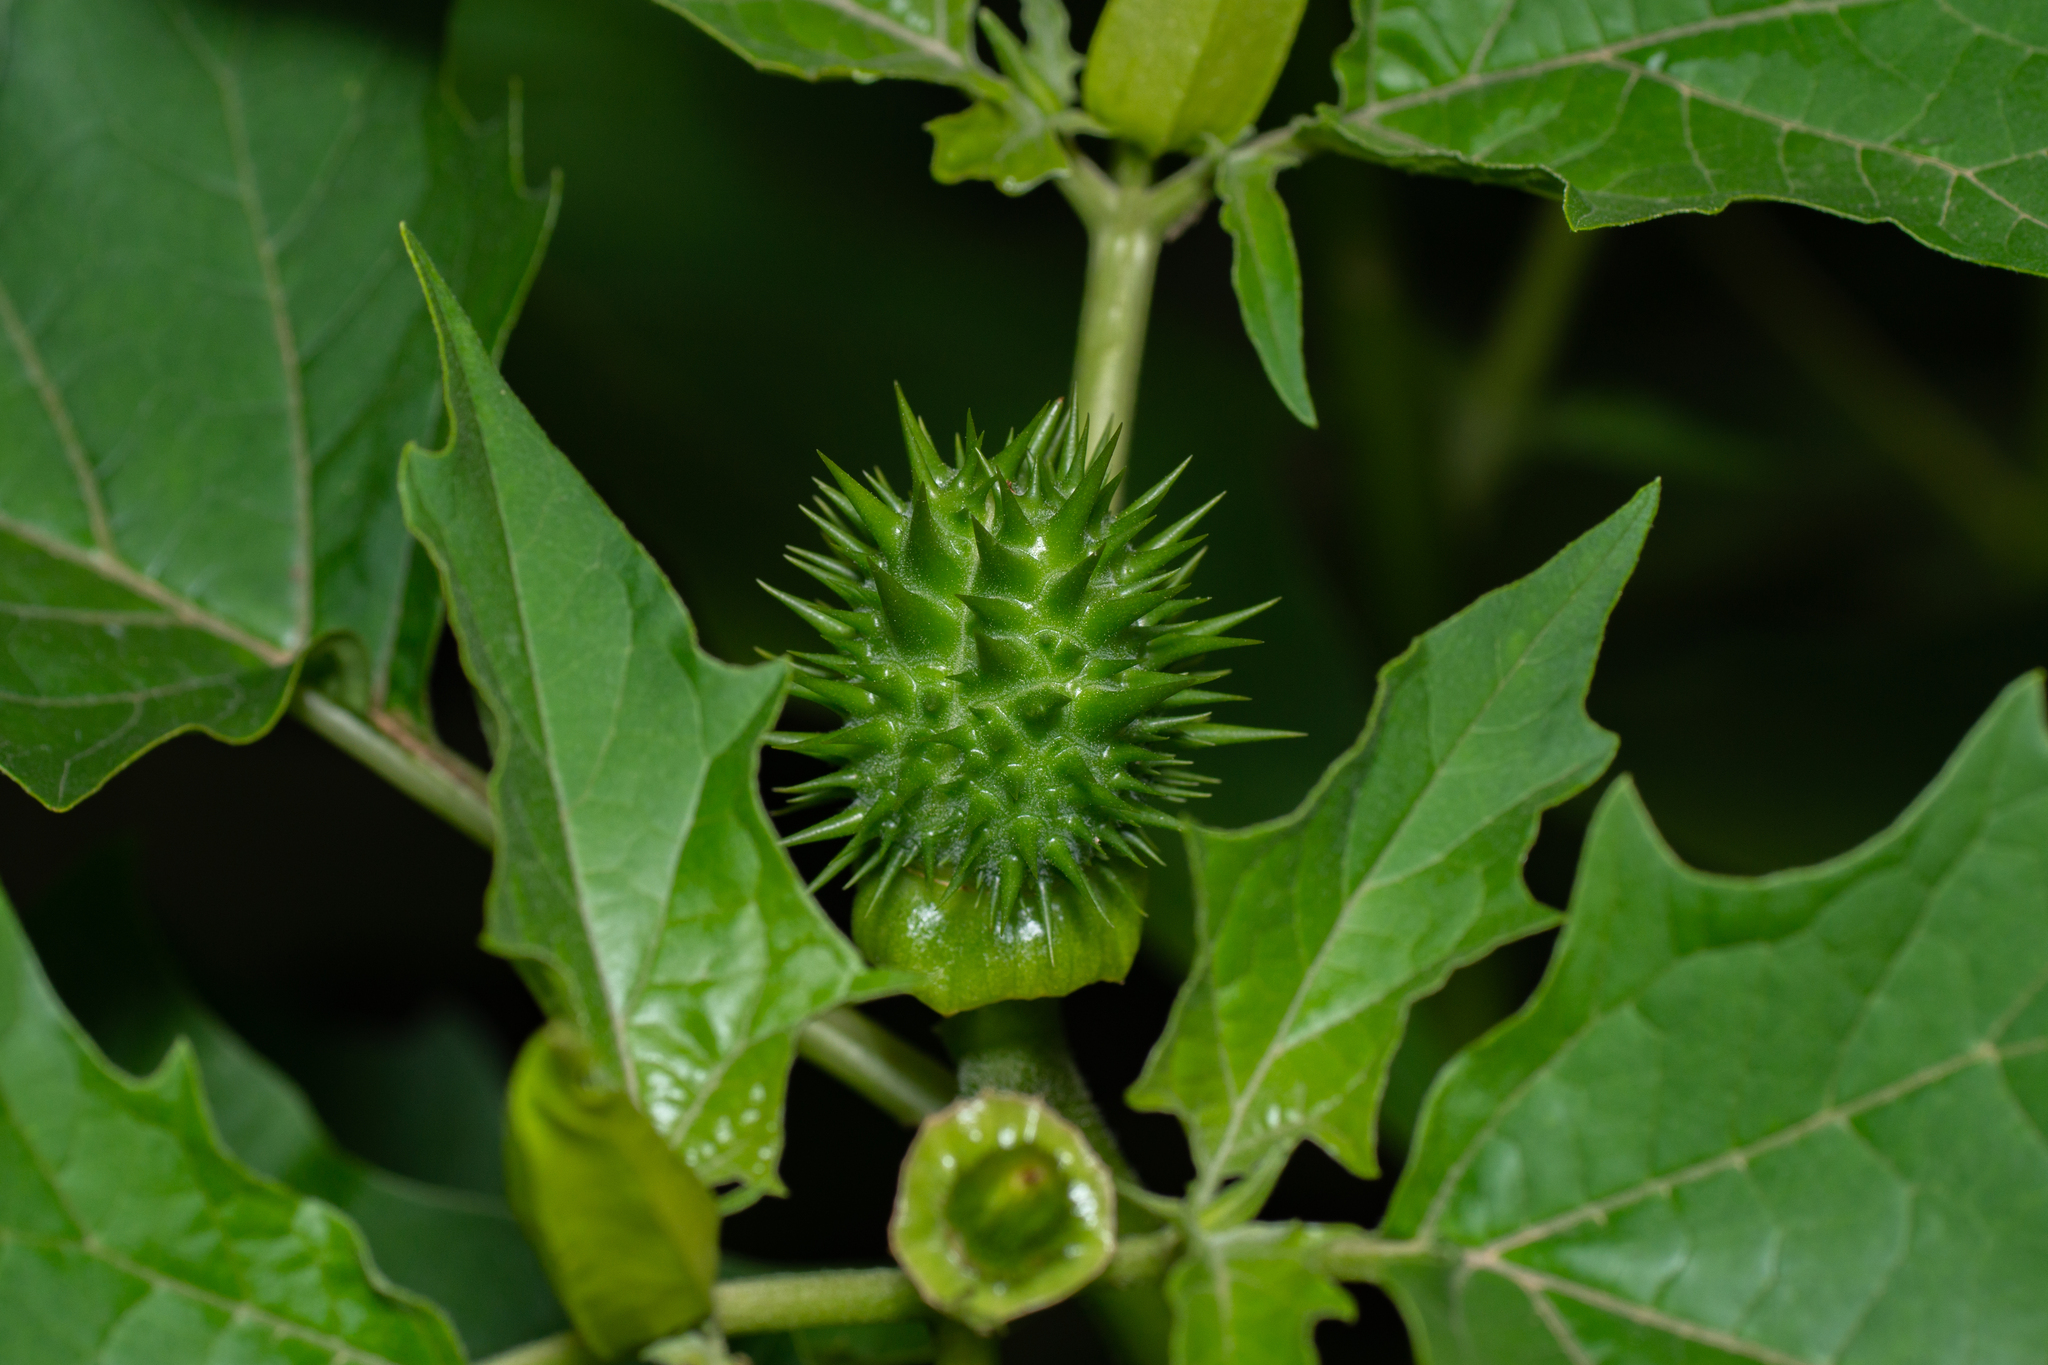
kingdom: Plantae
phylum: Tracheophyta
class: Magnoliopsida
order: Solanales
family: Solanaceae
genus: Datura
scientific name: Datura stramonium
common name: Thorn-apple
